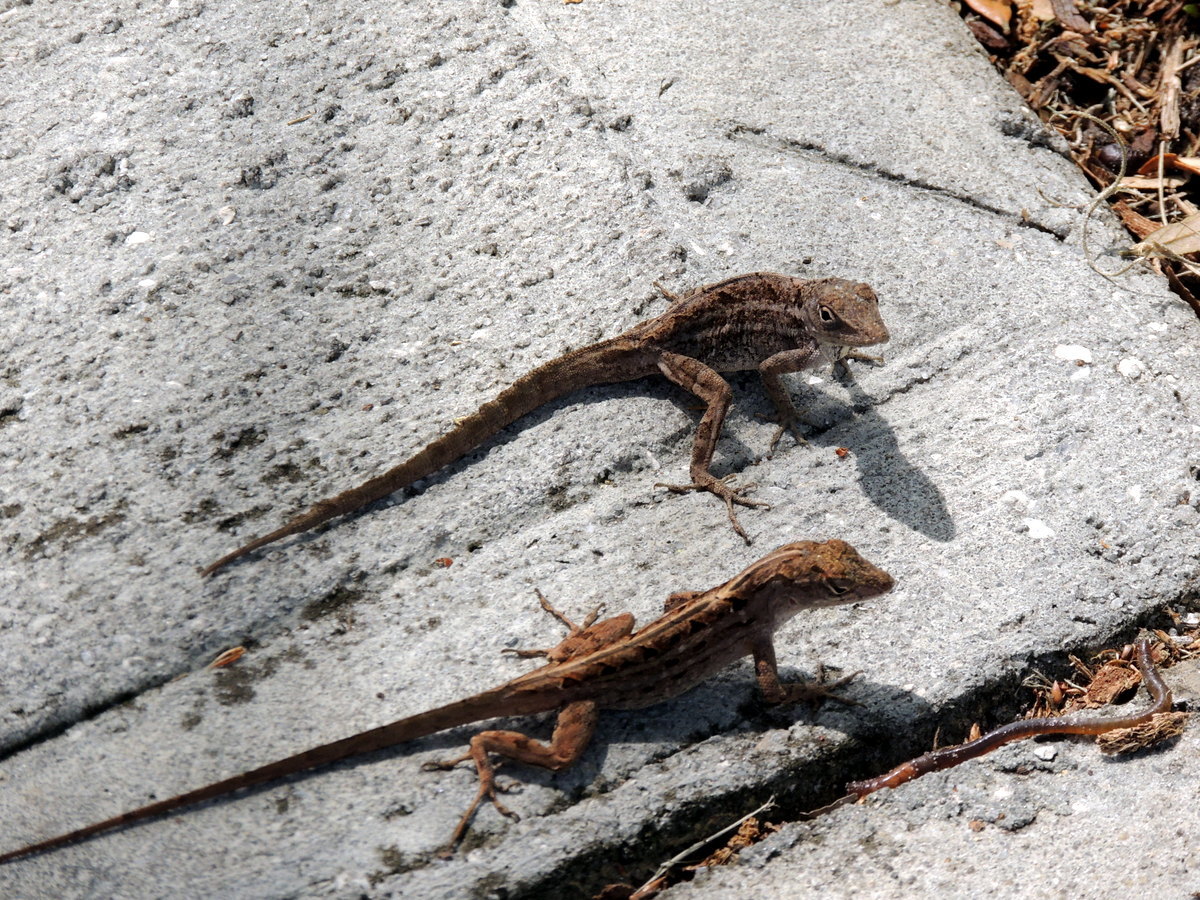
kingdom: Animalia
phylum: Chordata
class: Squamata
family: Dactyloidae
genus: Anolis
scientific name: Anolis sagrei
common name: Brown anole
